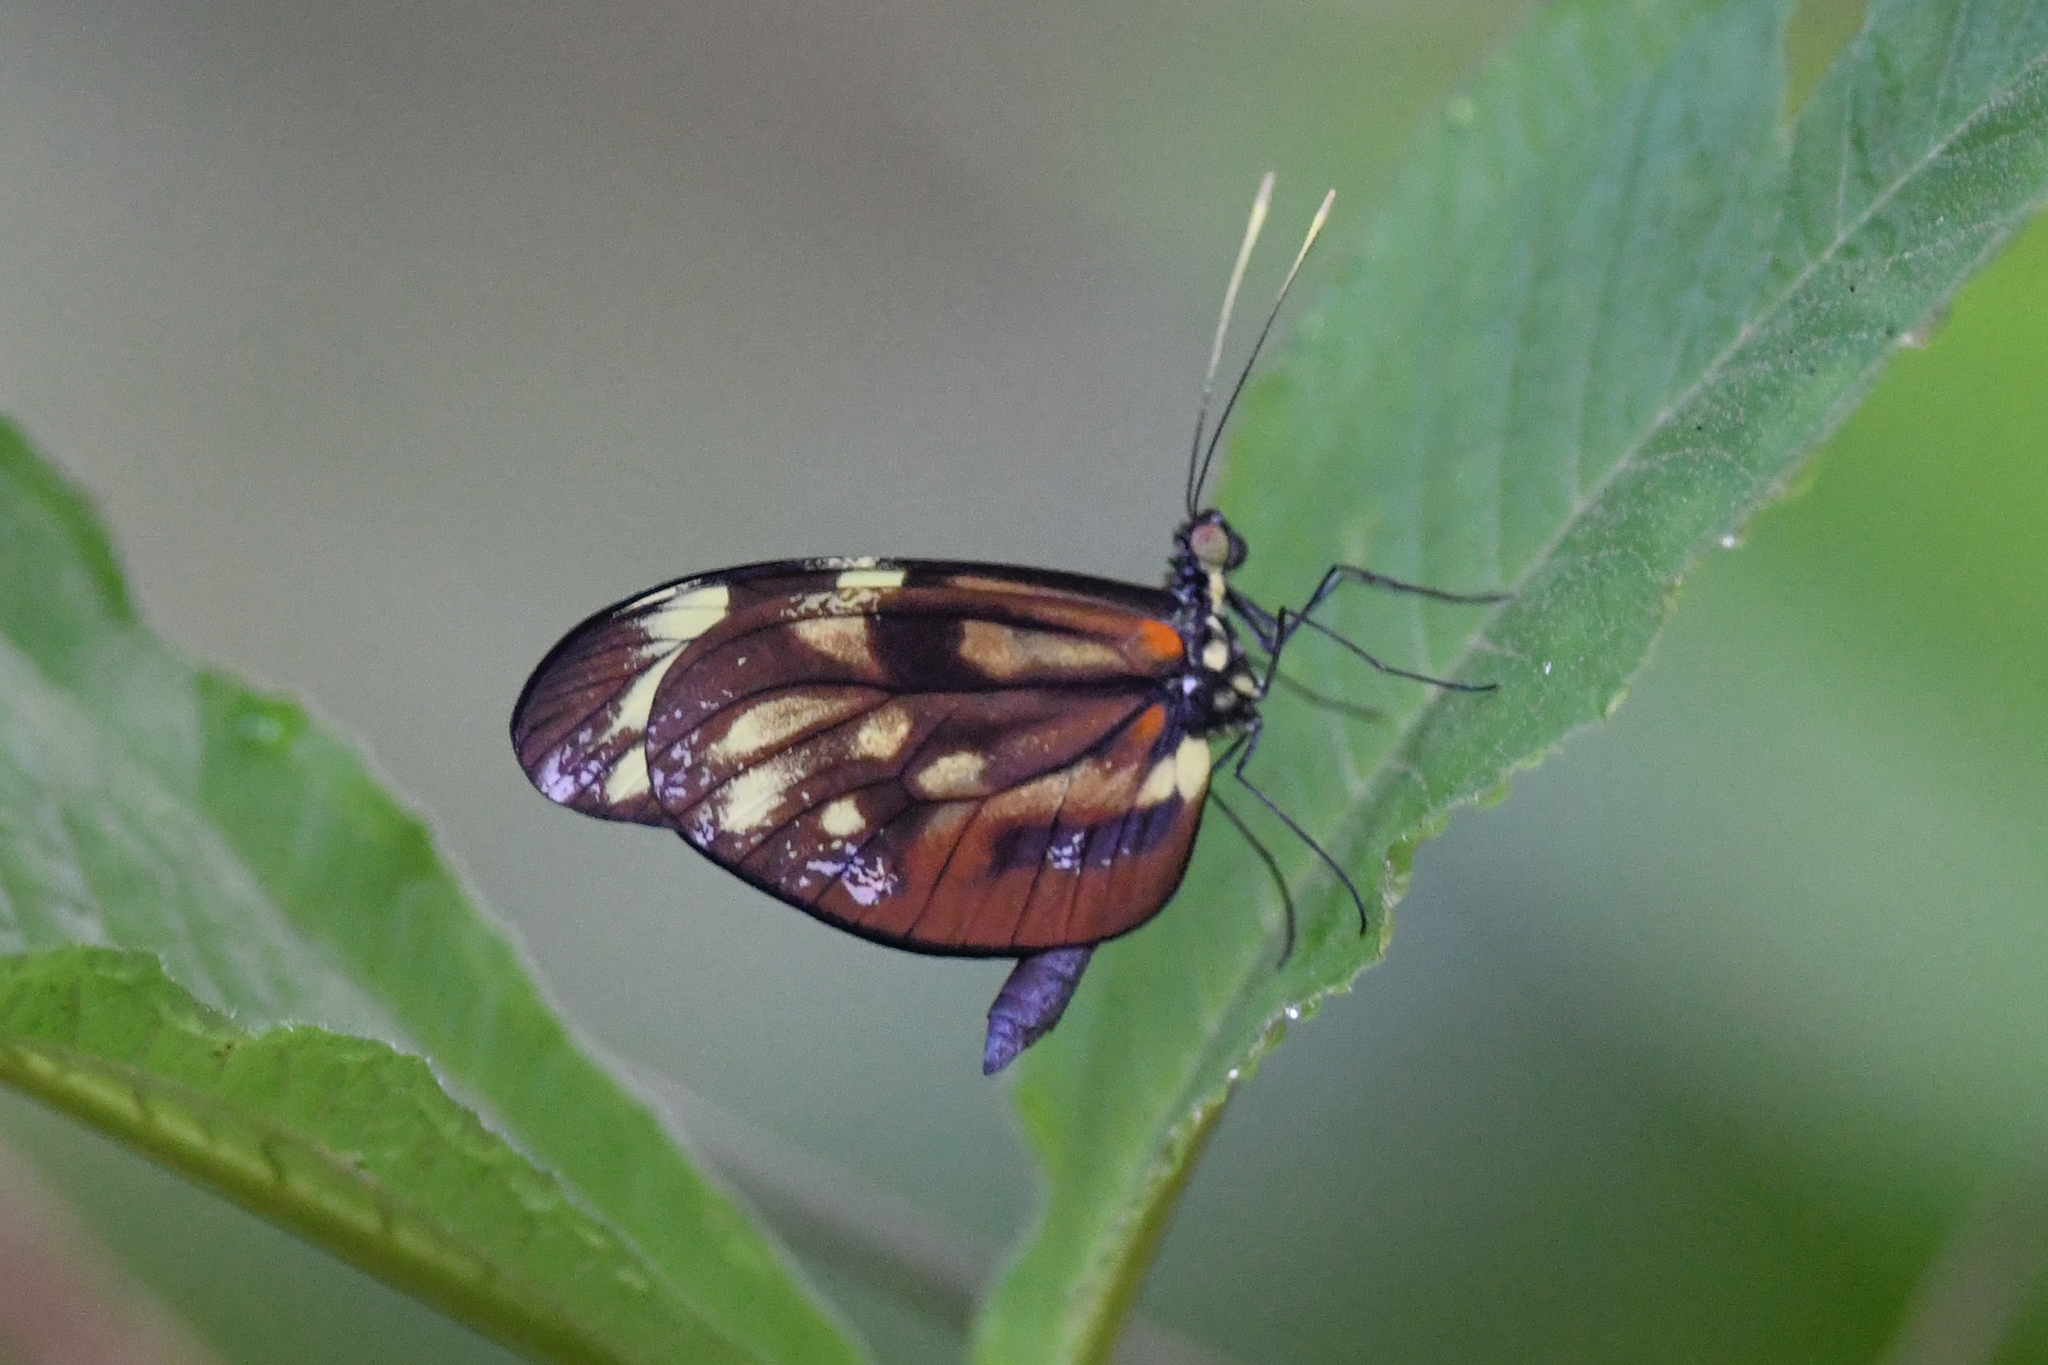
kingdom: Animalia
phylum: Arthropoda
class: Insecta
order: Lepidoptera
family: Pieridae
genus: Dismorphia
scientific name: Dismorphia amphione
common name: Tiger mimic-white
